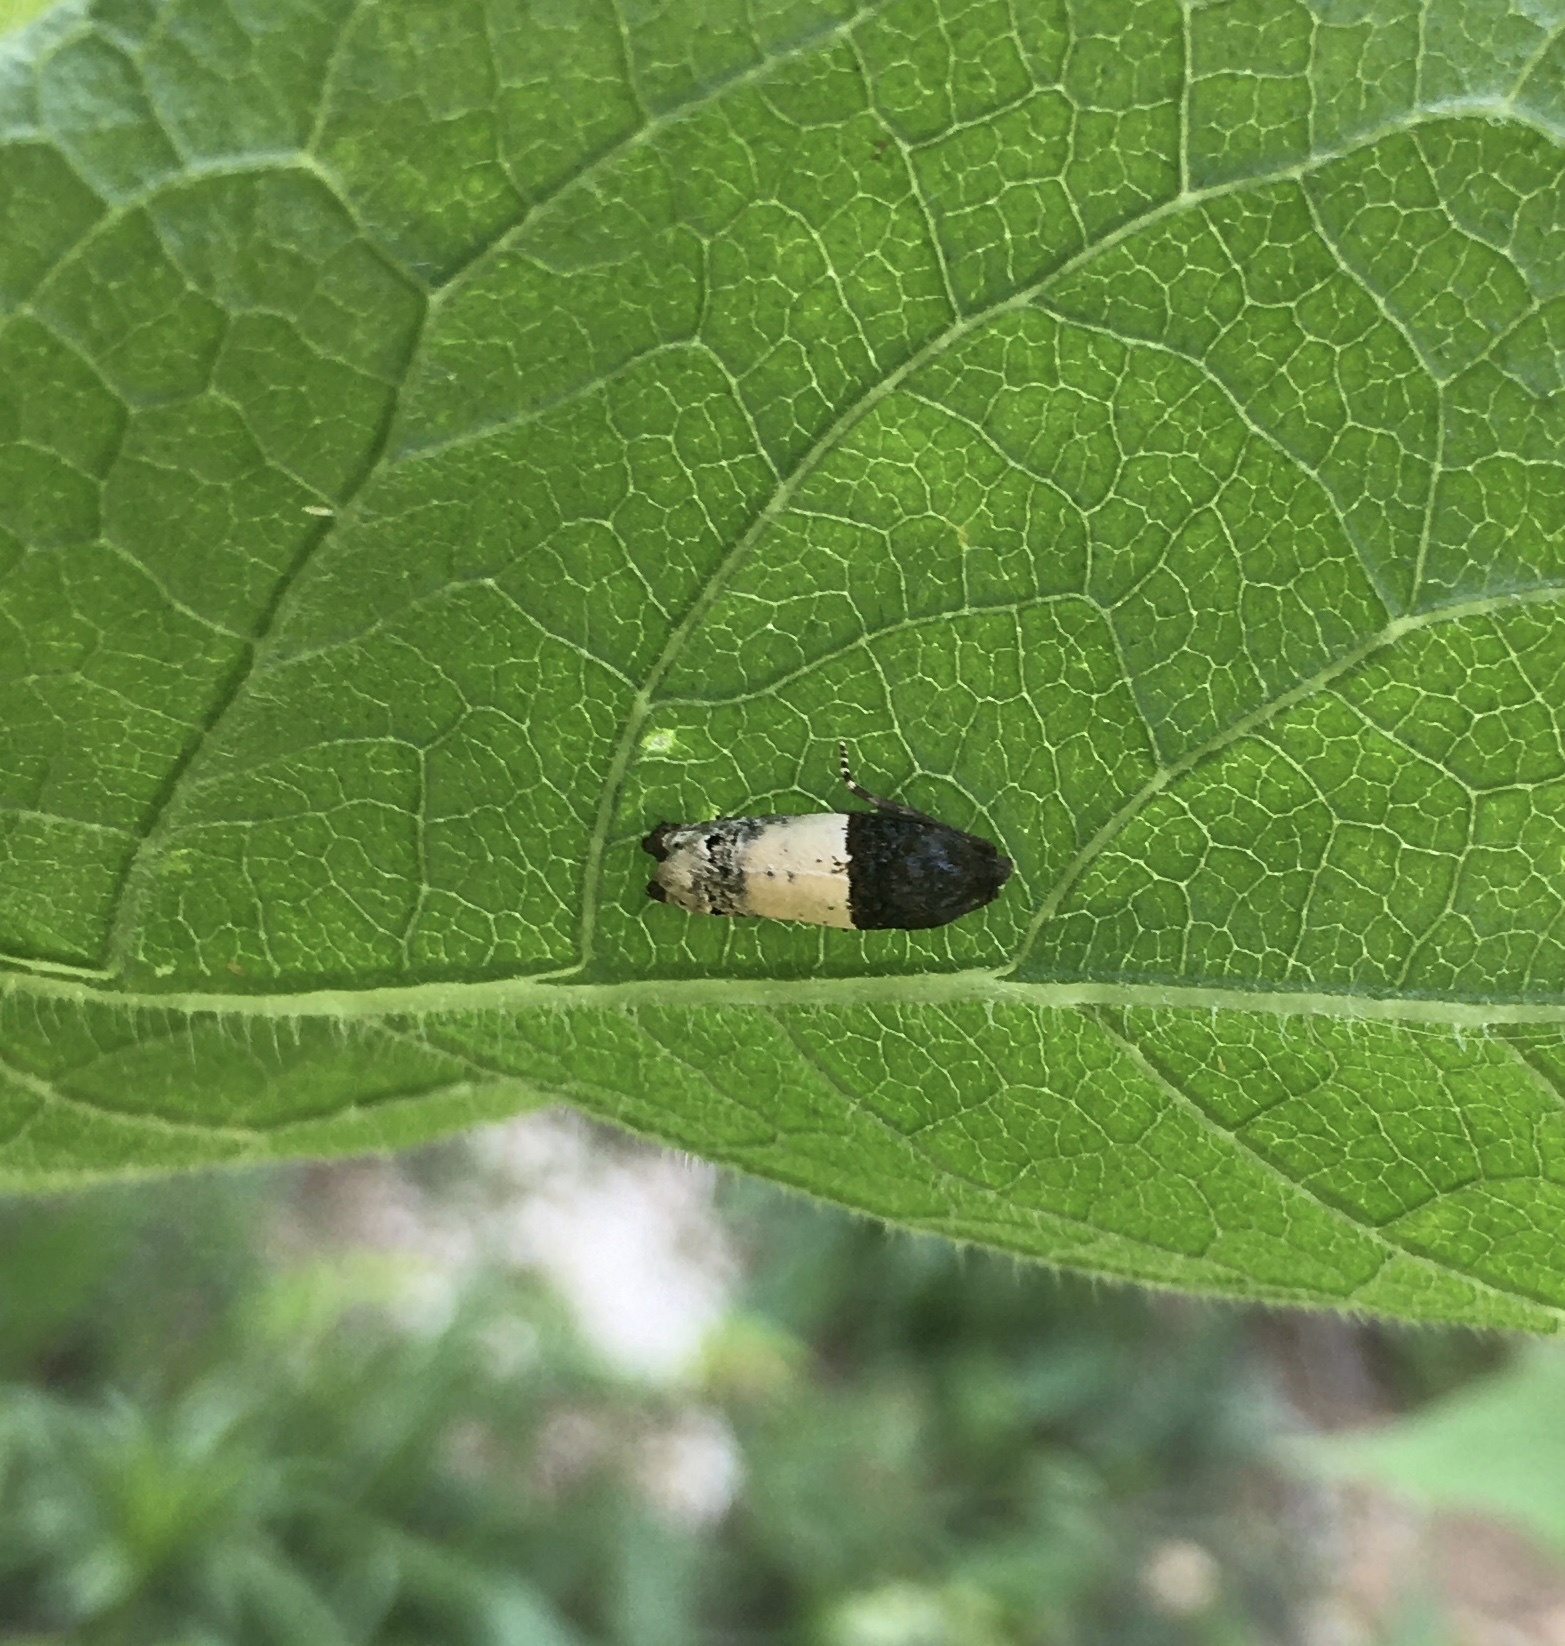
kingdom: Animalia
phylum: Arthropoda
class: Insecta
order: Lepidoptera
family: Tortricidae
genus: Epiblema
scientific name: Epiblema scudderiana
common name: Goldenrod gall moth
